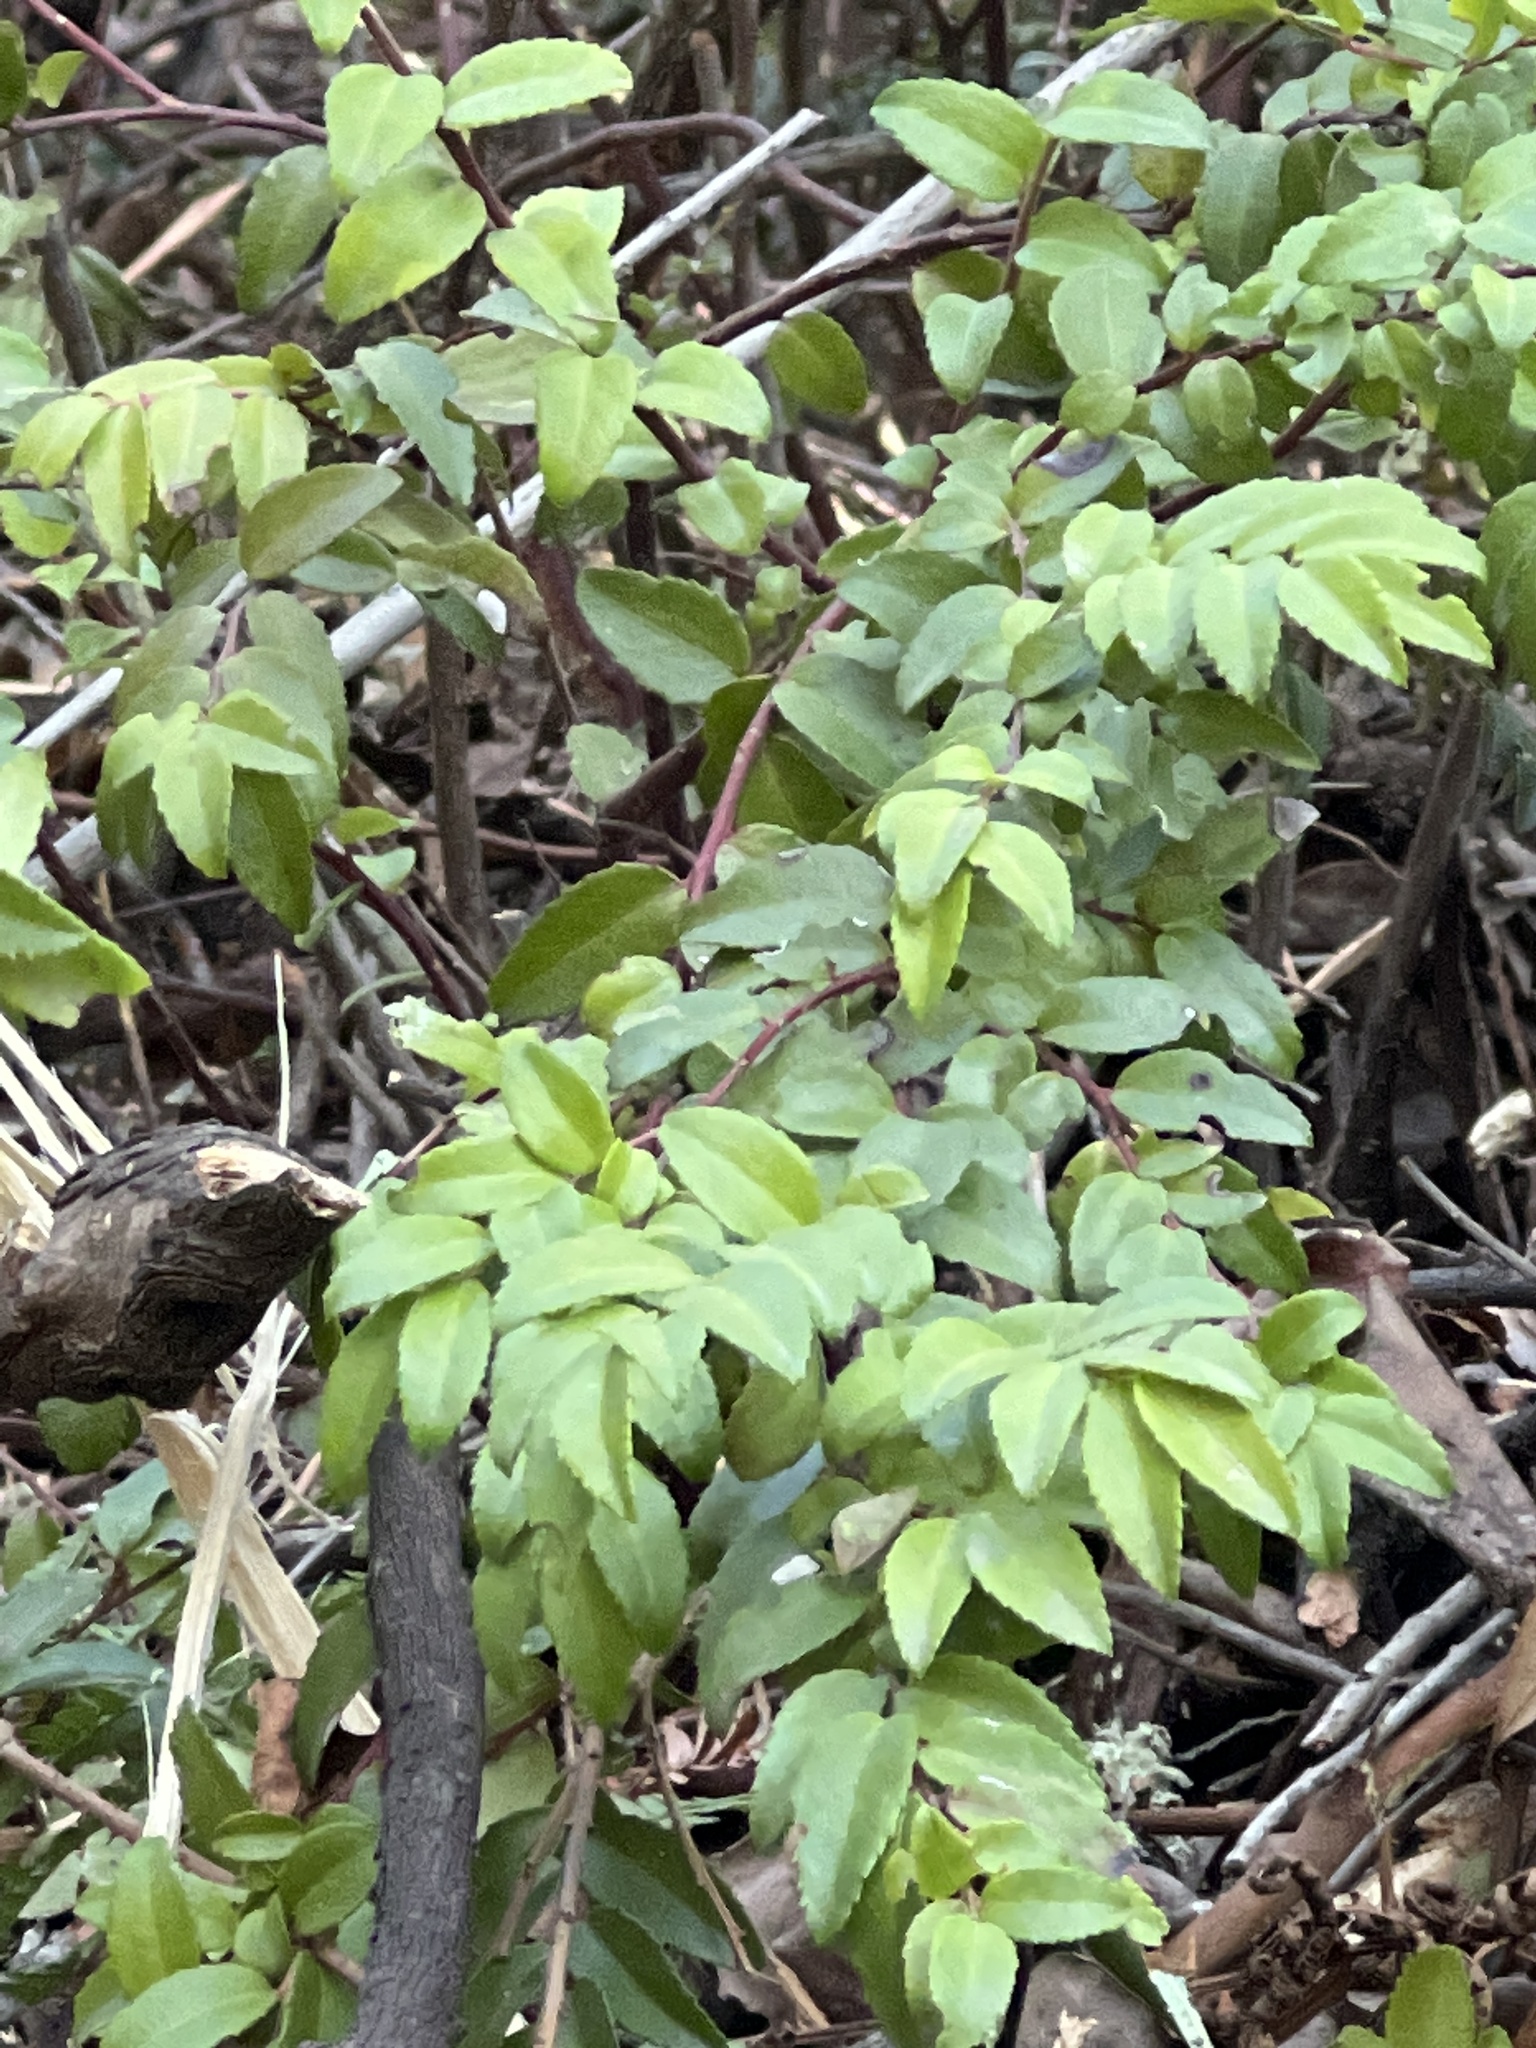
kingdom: Plantae
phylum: Tracheophyta
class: Magnoliopsida
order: Ericales
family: Ericaceae
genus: Vaccinium
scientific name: Vaccinium ovatum
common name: California-huckleberry
